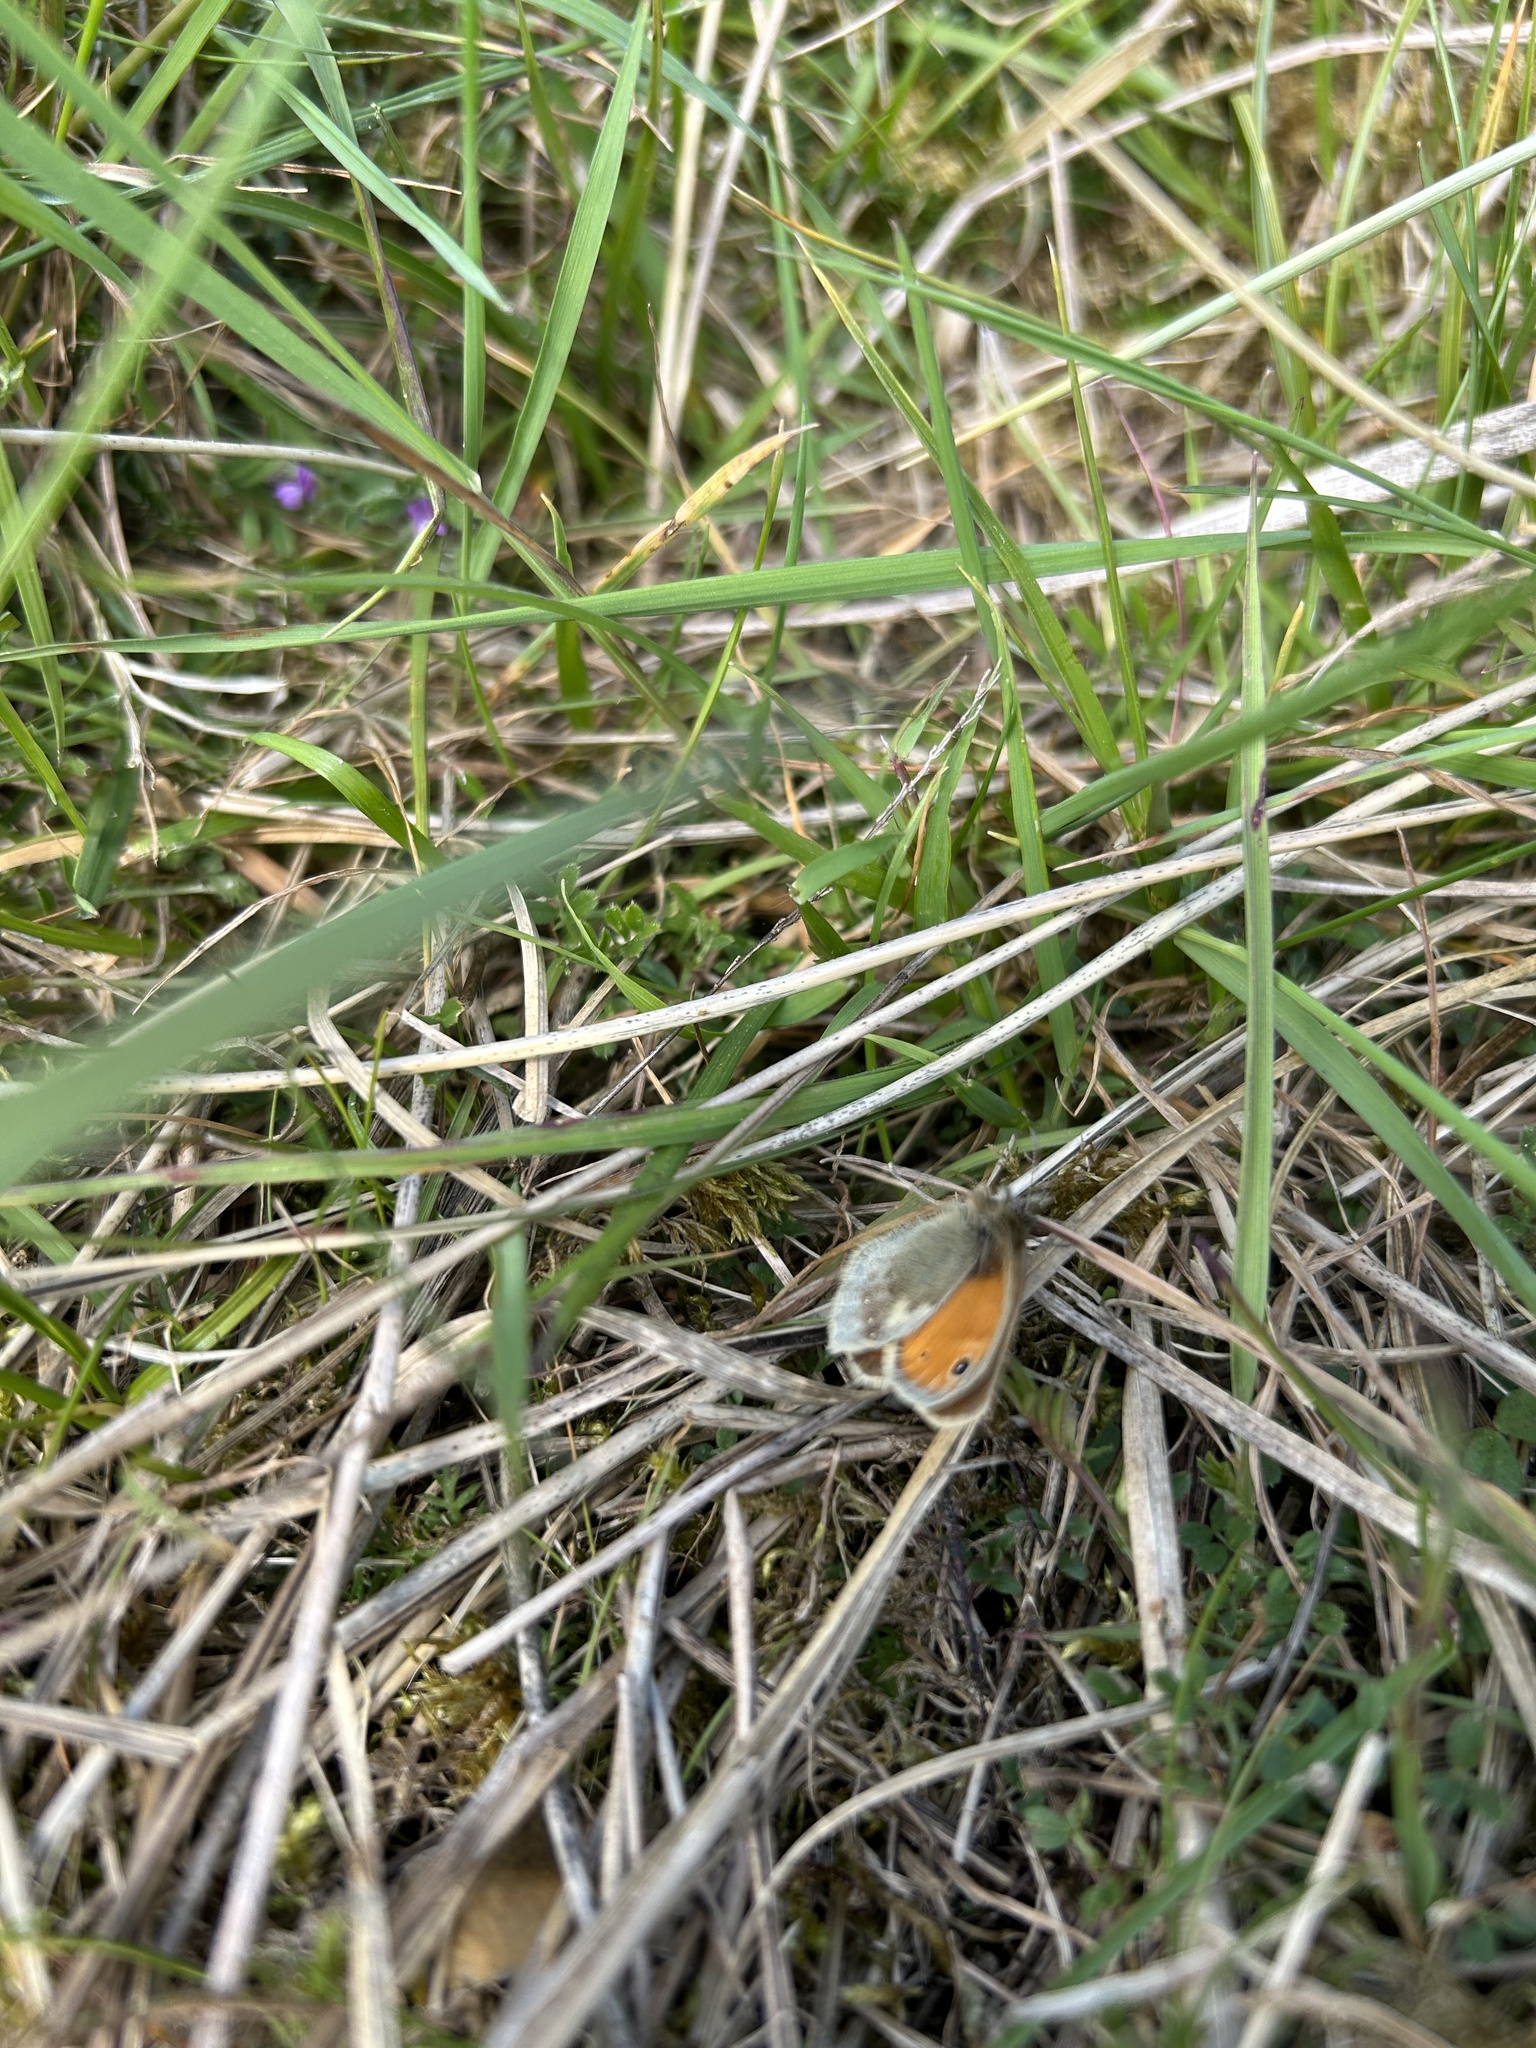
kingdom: Animalia
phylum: Arthropoda
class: Insecta
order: Lepidoptera
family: Nymphalidae
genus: Coenonympha
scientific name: Coenonympha pamphilus
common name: Small heath
